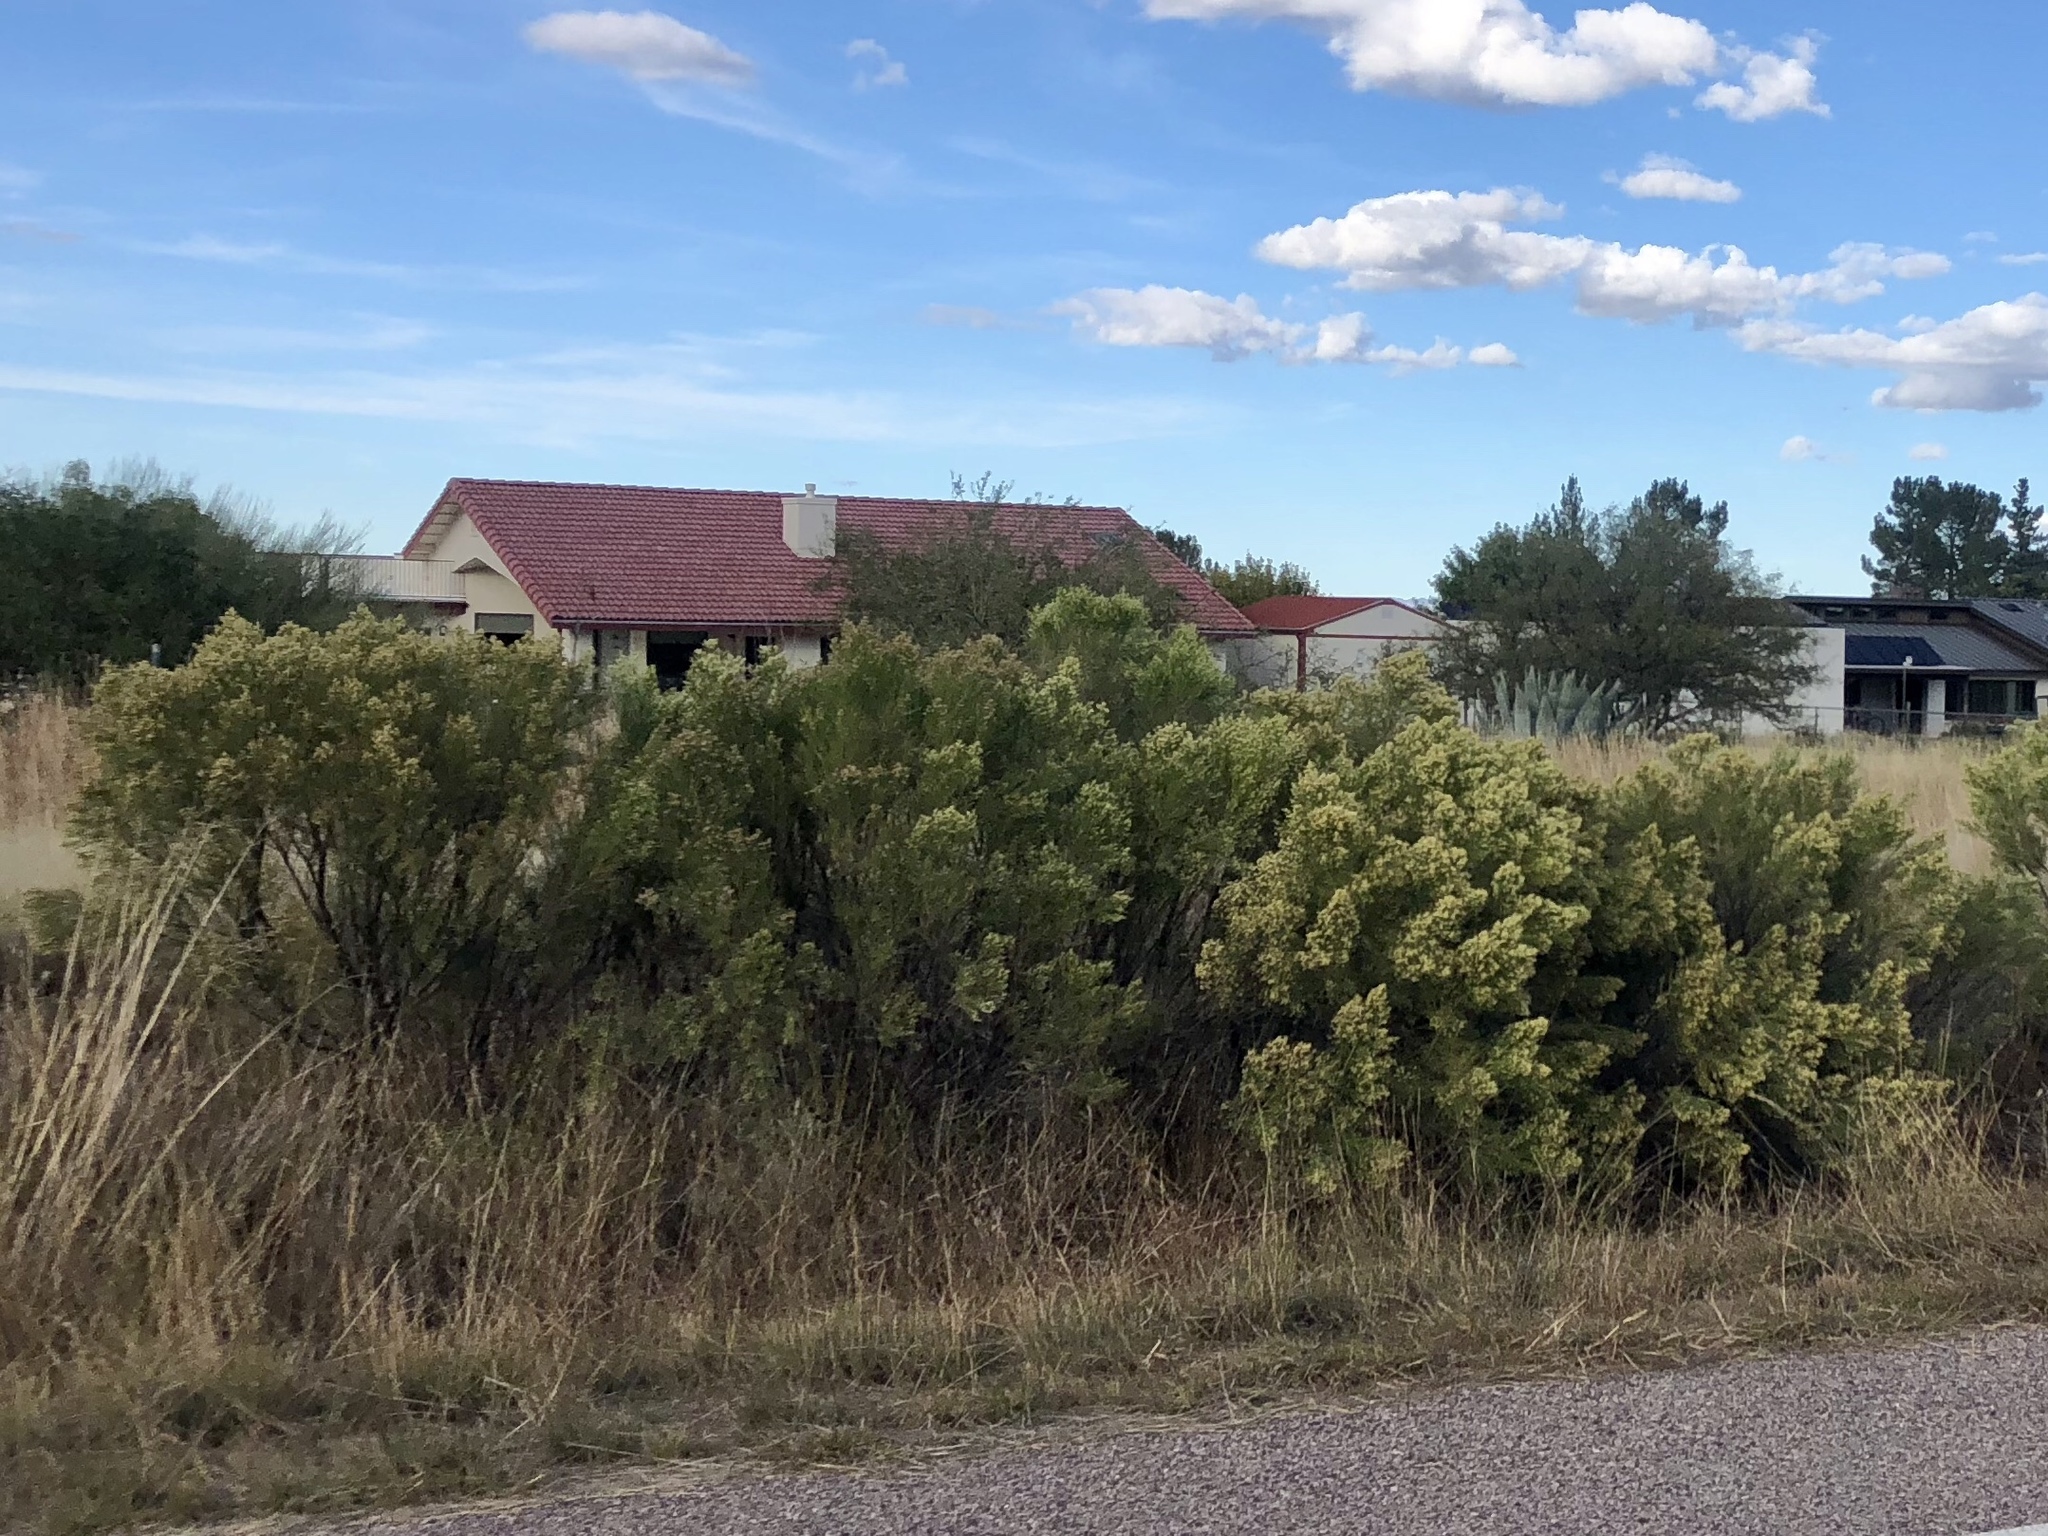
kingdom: Plantae
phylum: Tracheophyta
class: Magnoliopsida
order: Asterales
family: Asteraceae
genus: Baccharis
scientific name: Baccharis sarothroides
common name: Desert-broom
